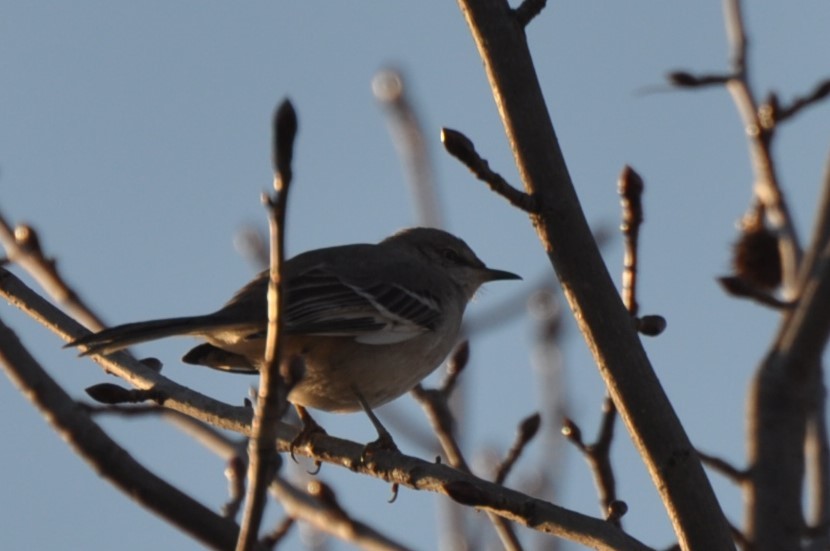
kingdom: Animalia
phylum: Chordata
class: Aves
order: Passeriformes
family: Mimidae
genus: Mimus
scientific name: Mimus polyglottos
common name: Northern mockingbird
